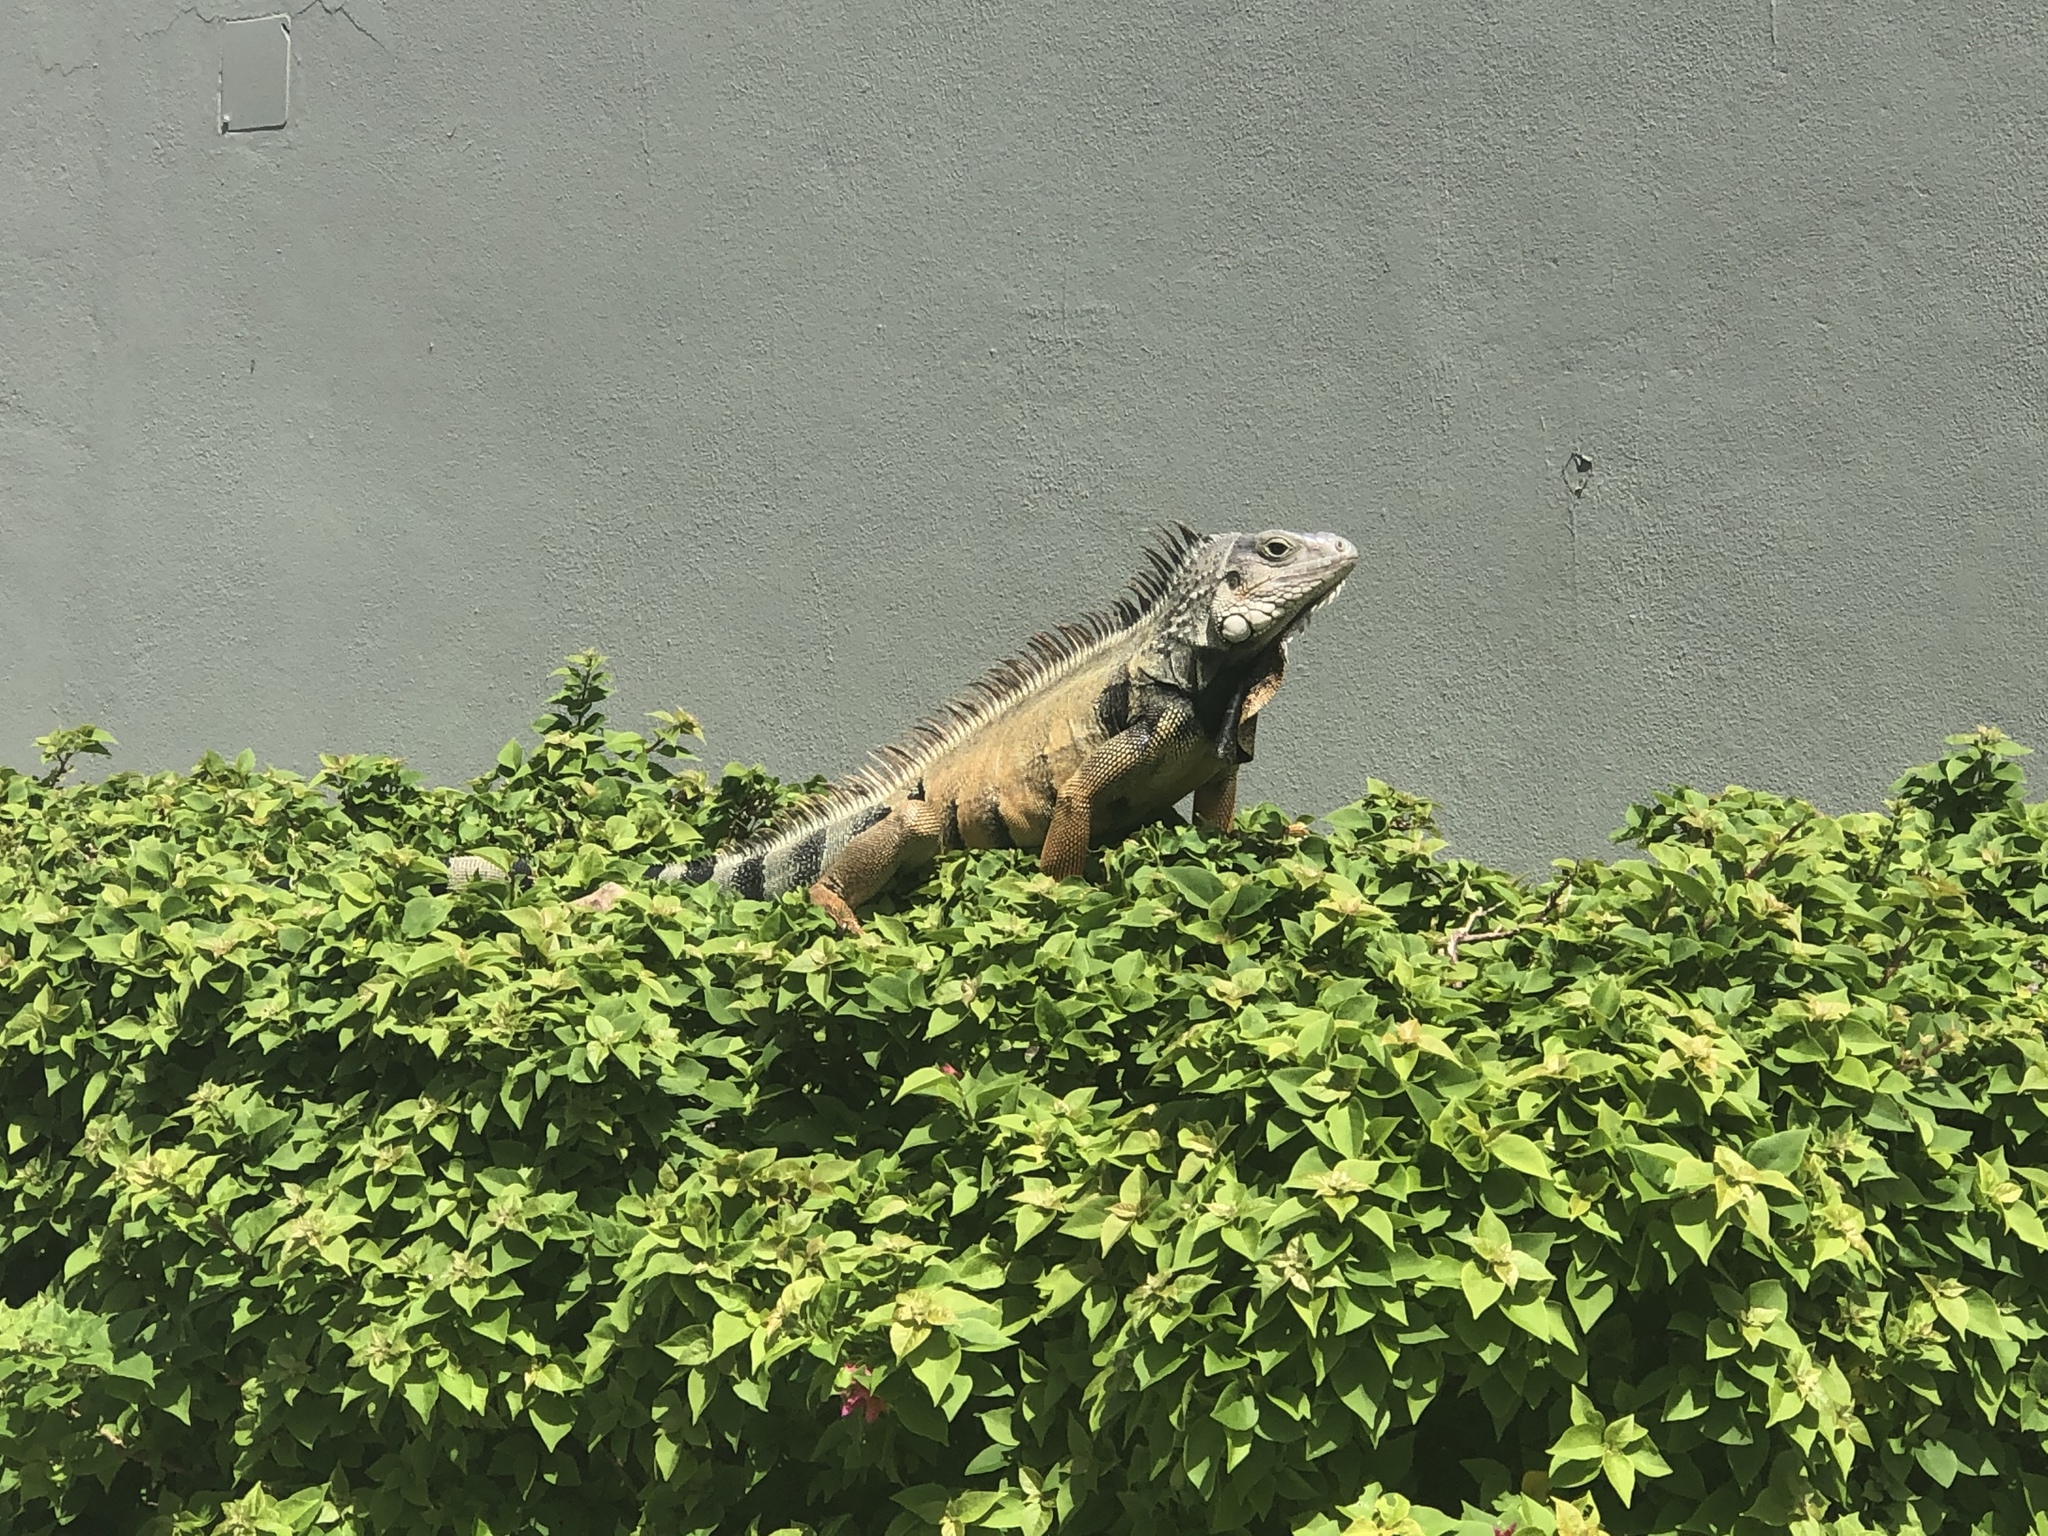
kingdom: Animalia
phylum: Chordata
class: Squamata
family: Iguanidae
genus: Iguana
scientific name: Iguana iguana
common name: Green iguana
